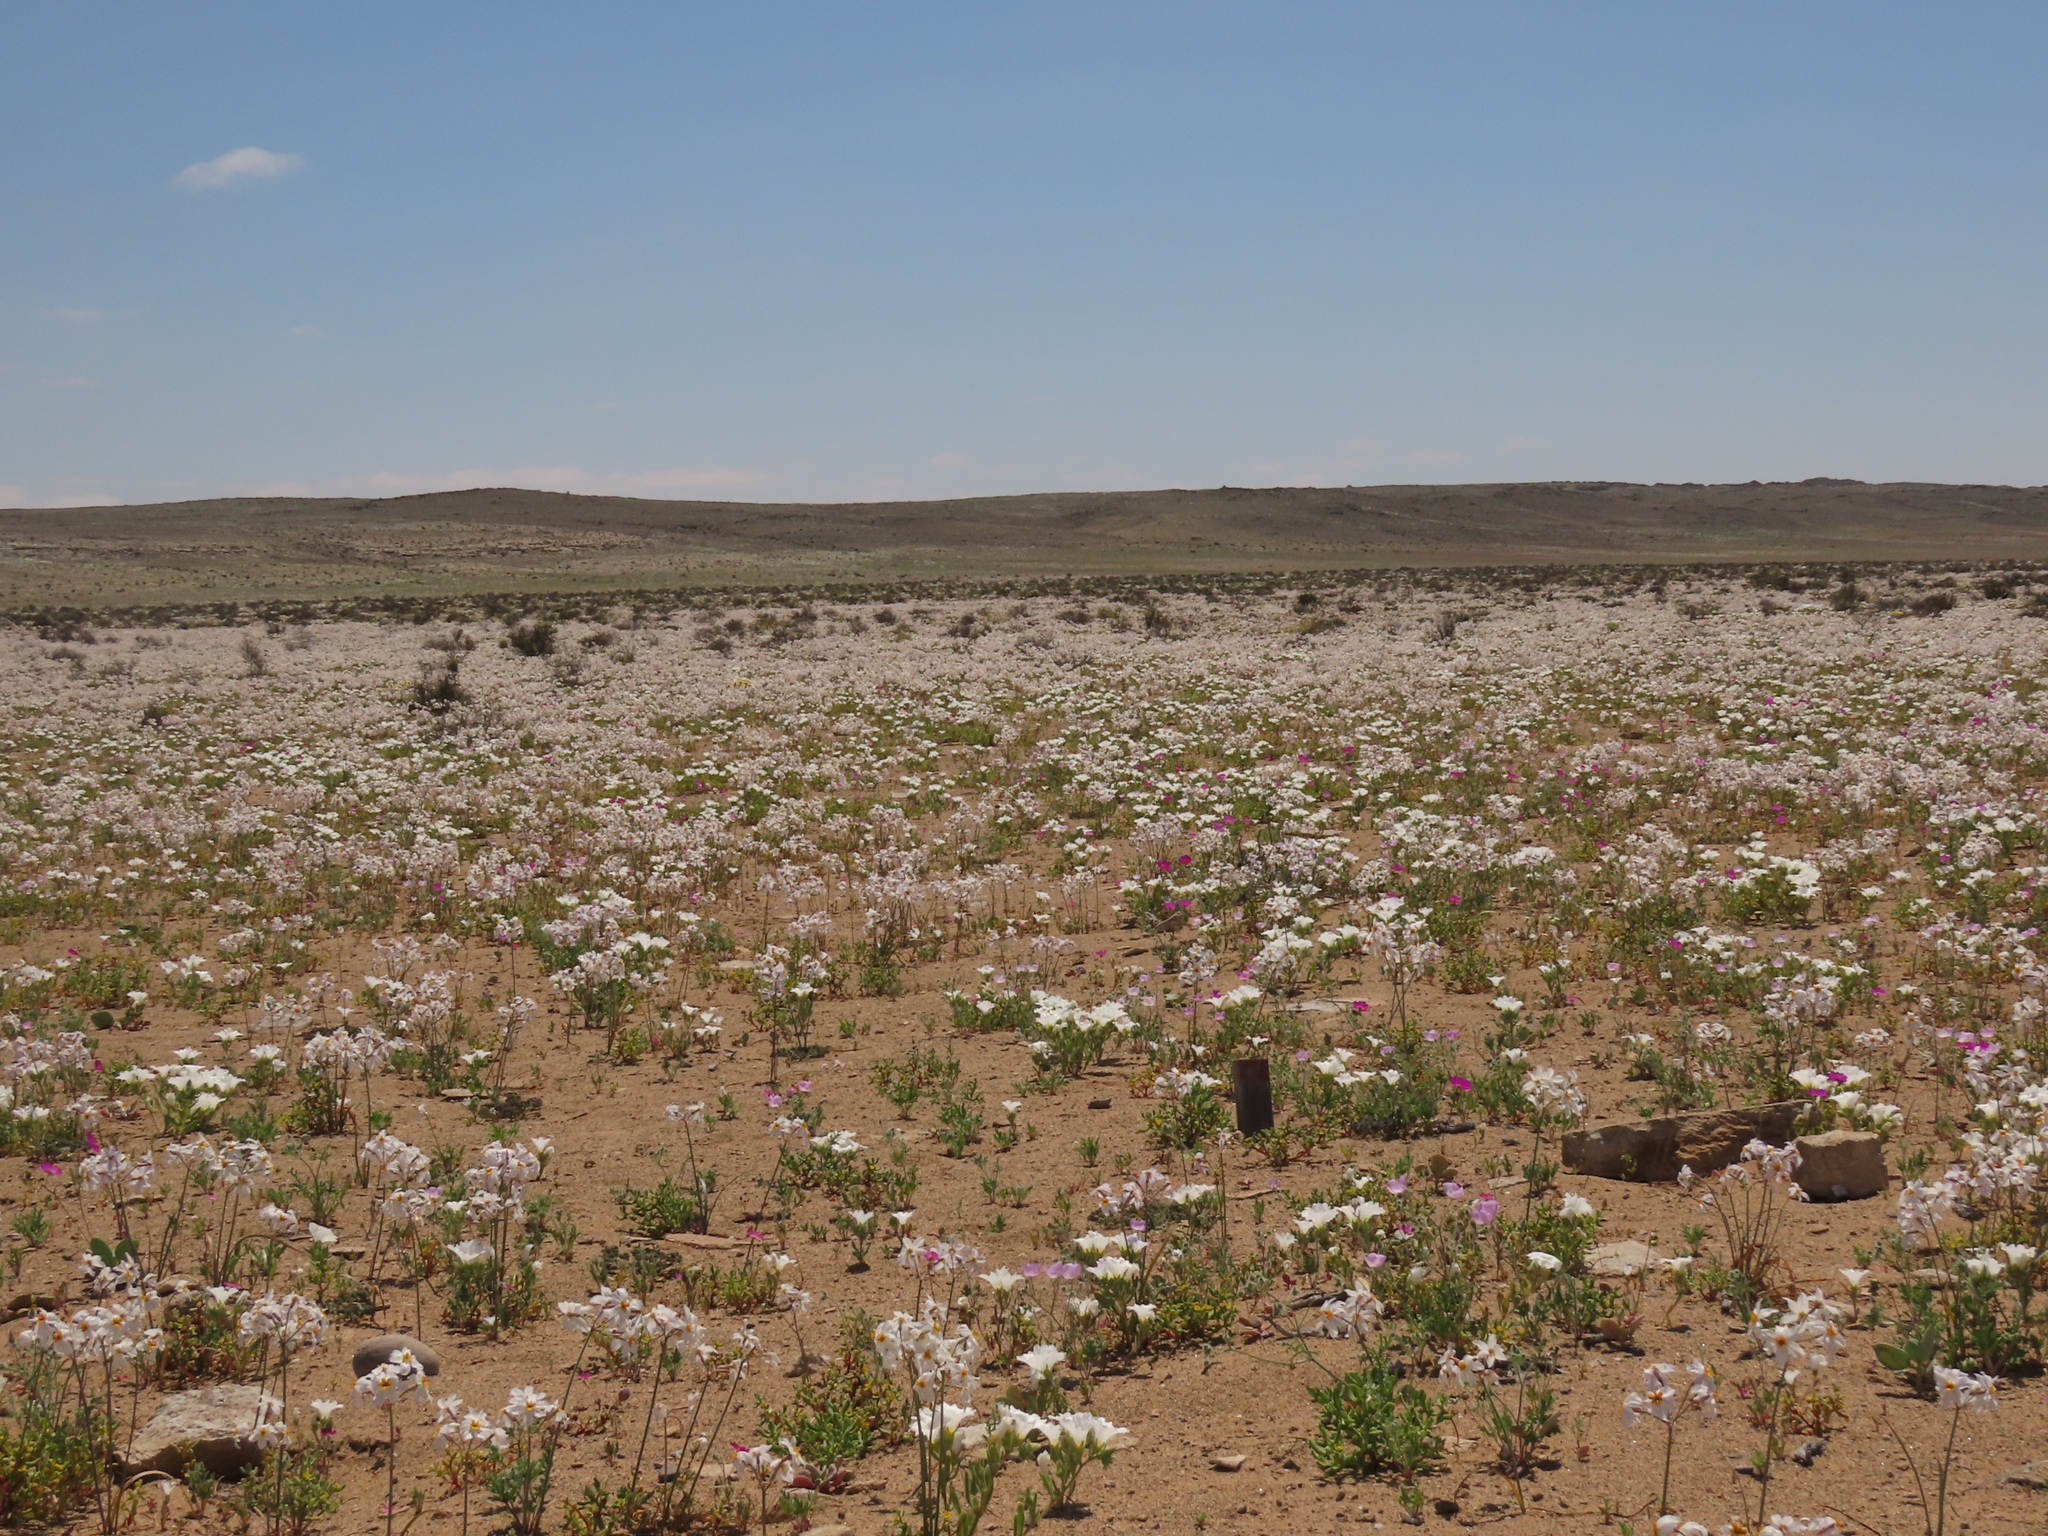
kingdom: Plantae
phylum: Tracheophyta
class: Liliopsida
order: Asparagales
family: Amaryllidaceae
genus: Leucocoryne
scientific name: Leucocoryne coronata
